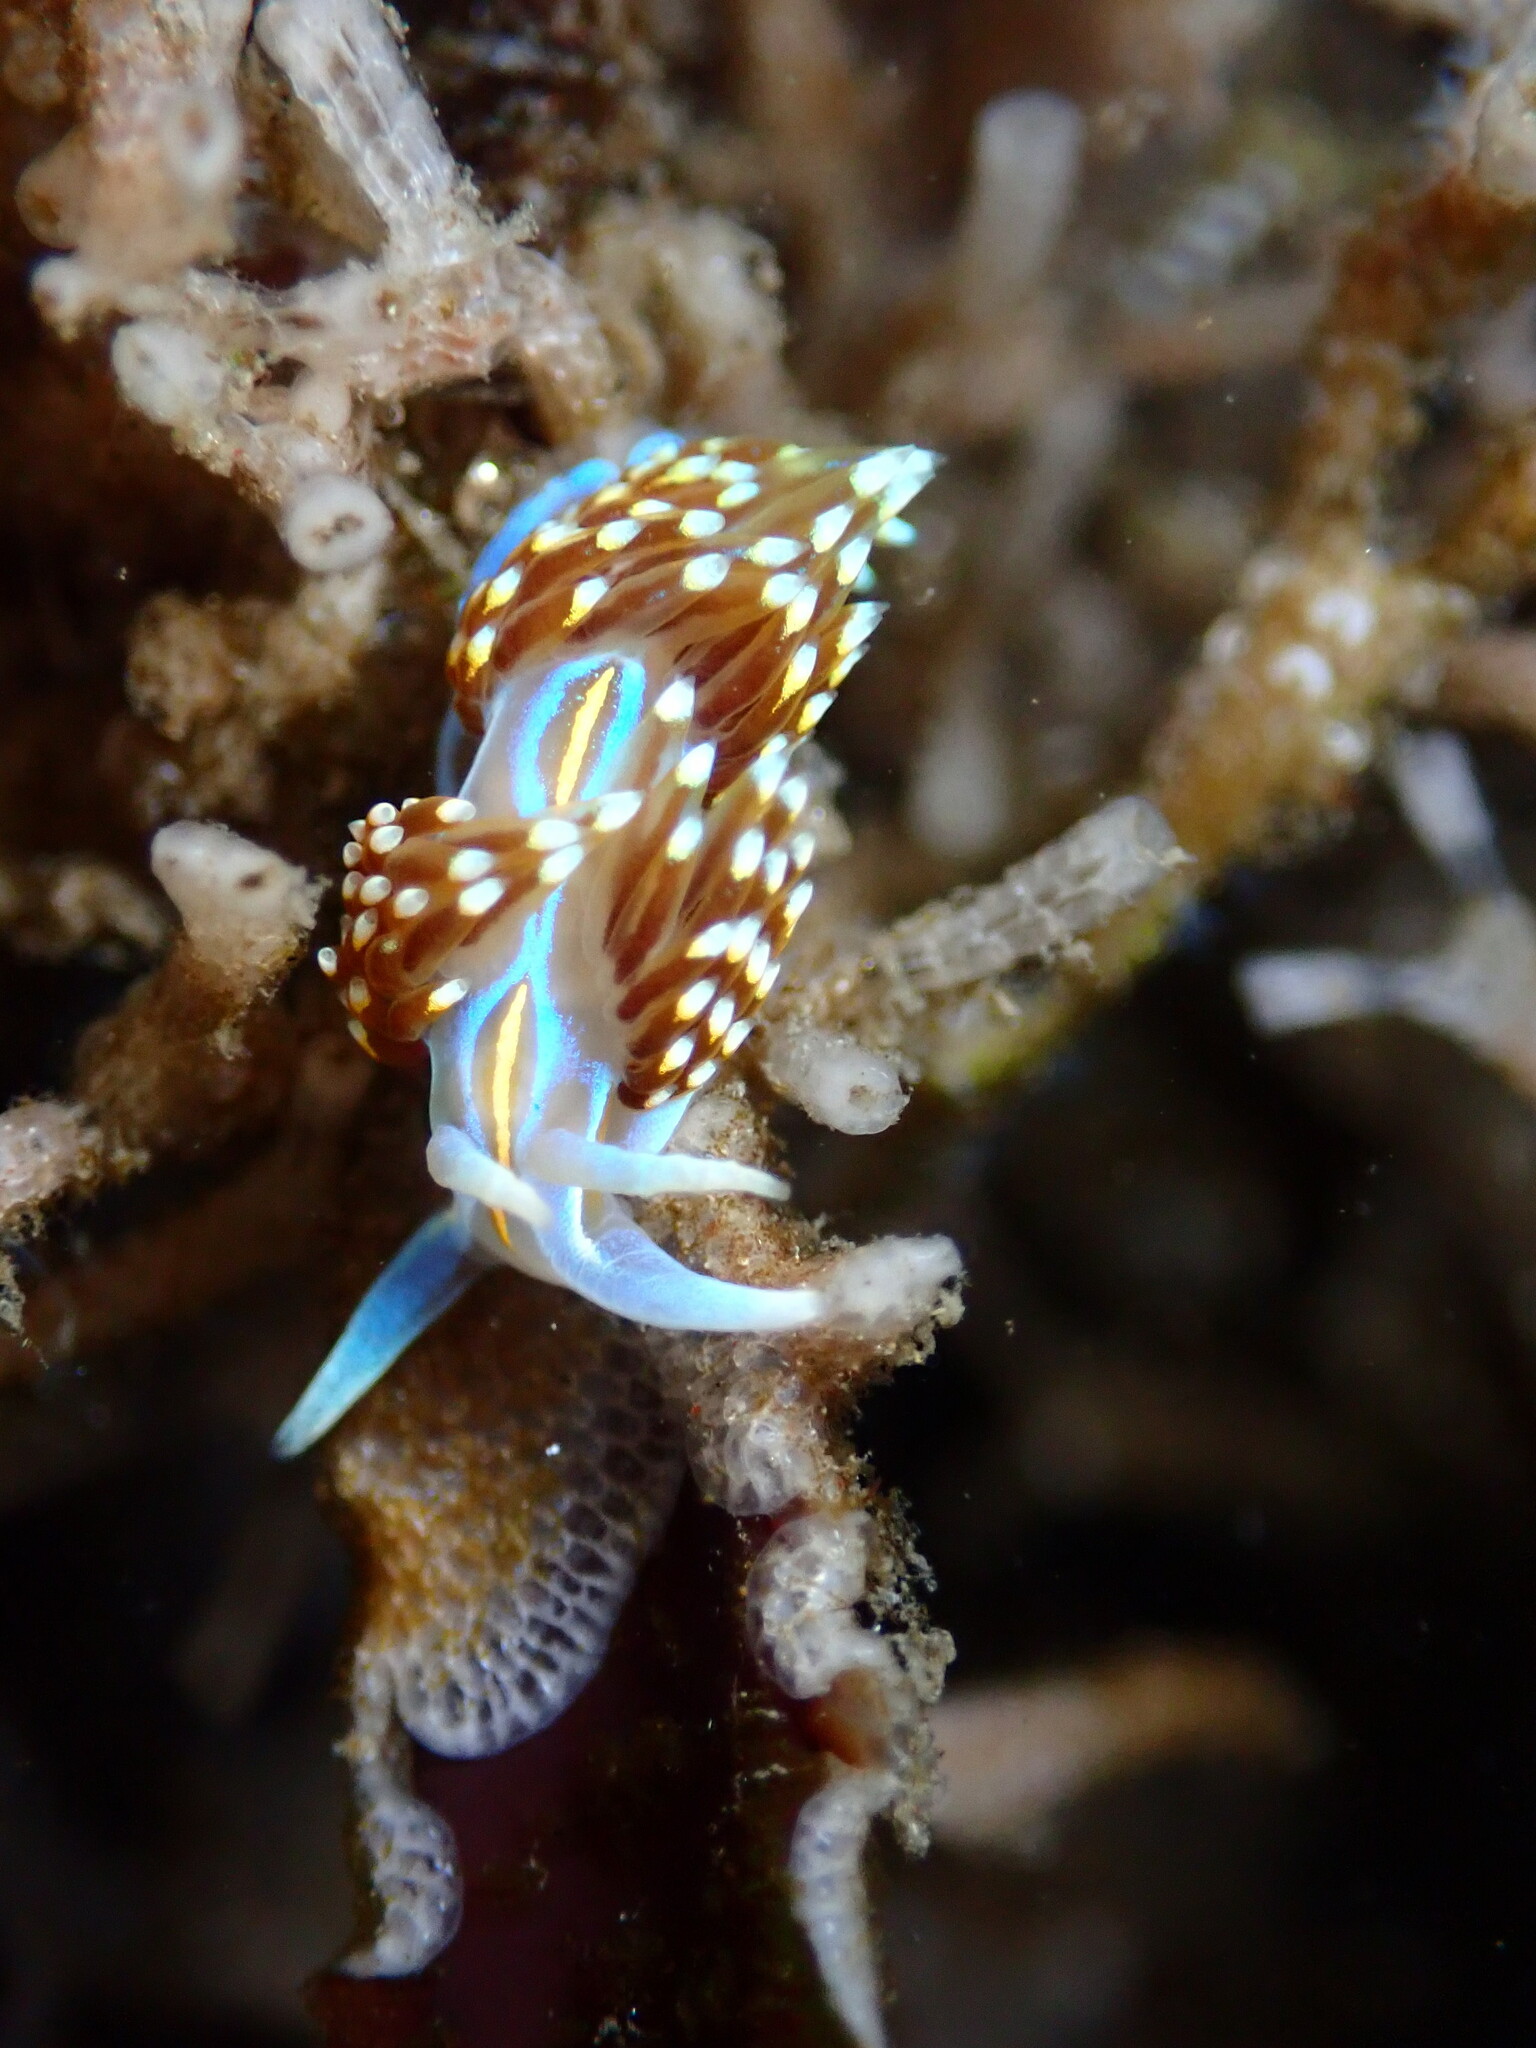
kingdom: Animalia
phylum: Mollusca
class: Gastropoda
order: Nudibranchia
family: Myrrhinidae
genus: Hermissenda
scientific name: Hermissenda opalescens
